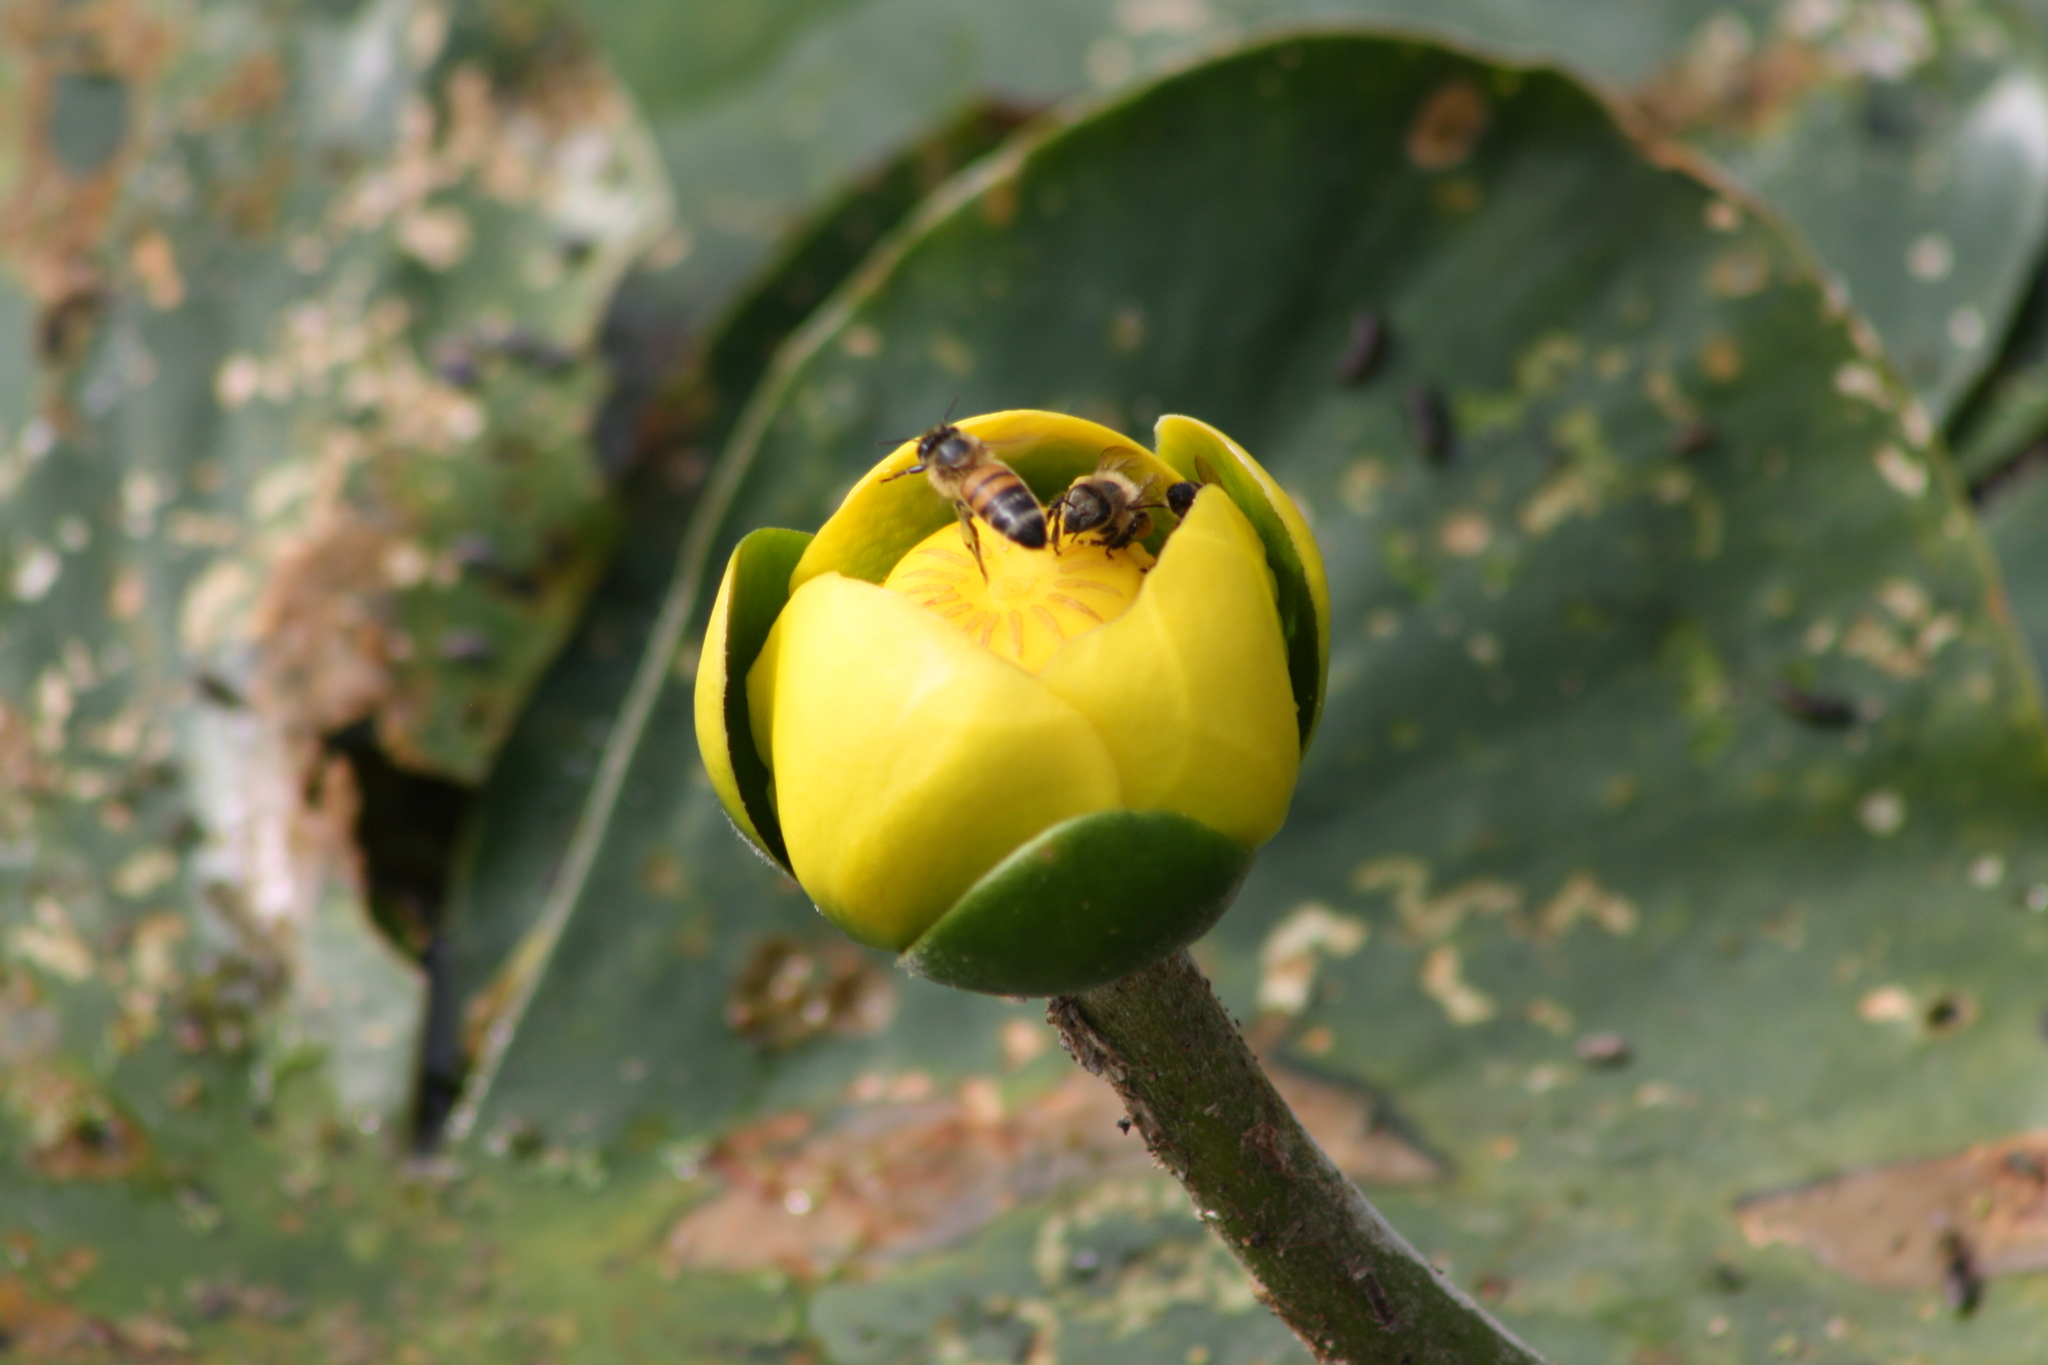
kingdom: Plantae
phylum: Tracheophyta
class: Magnoliopsida
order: Nymphaeales
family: Nymphaeaceae
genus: Nuphar
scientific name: Nuphar advena
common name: Spatter-dock
